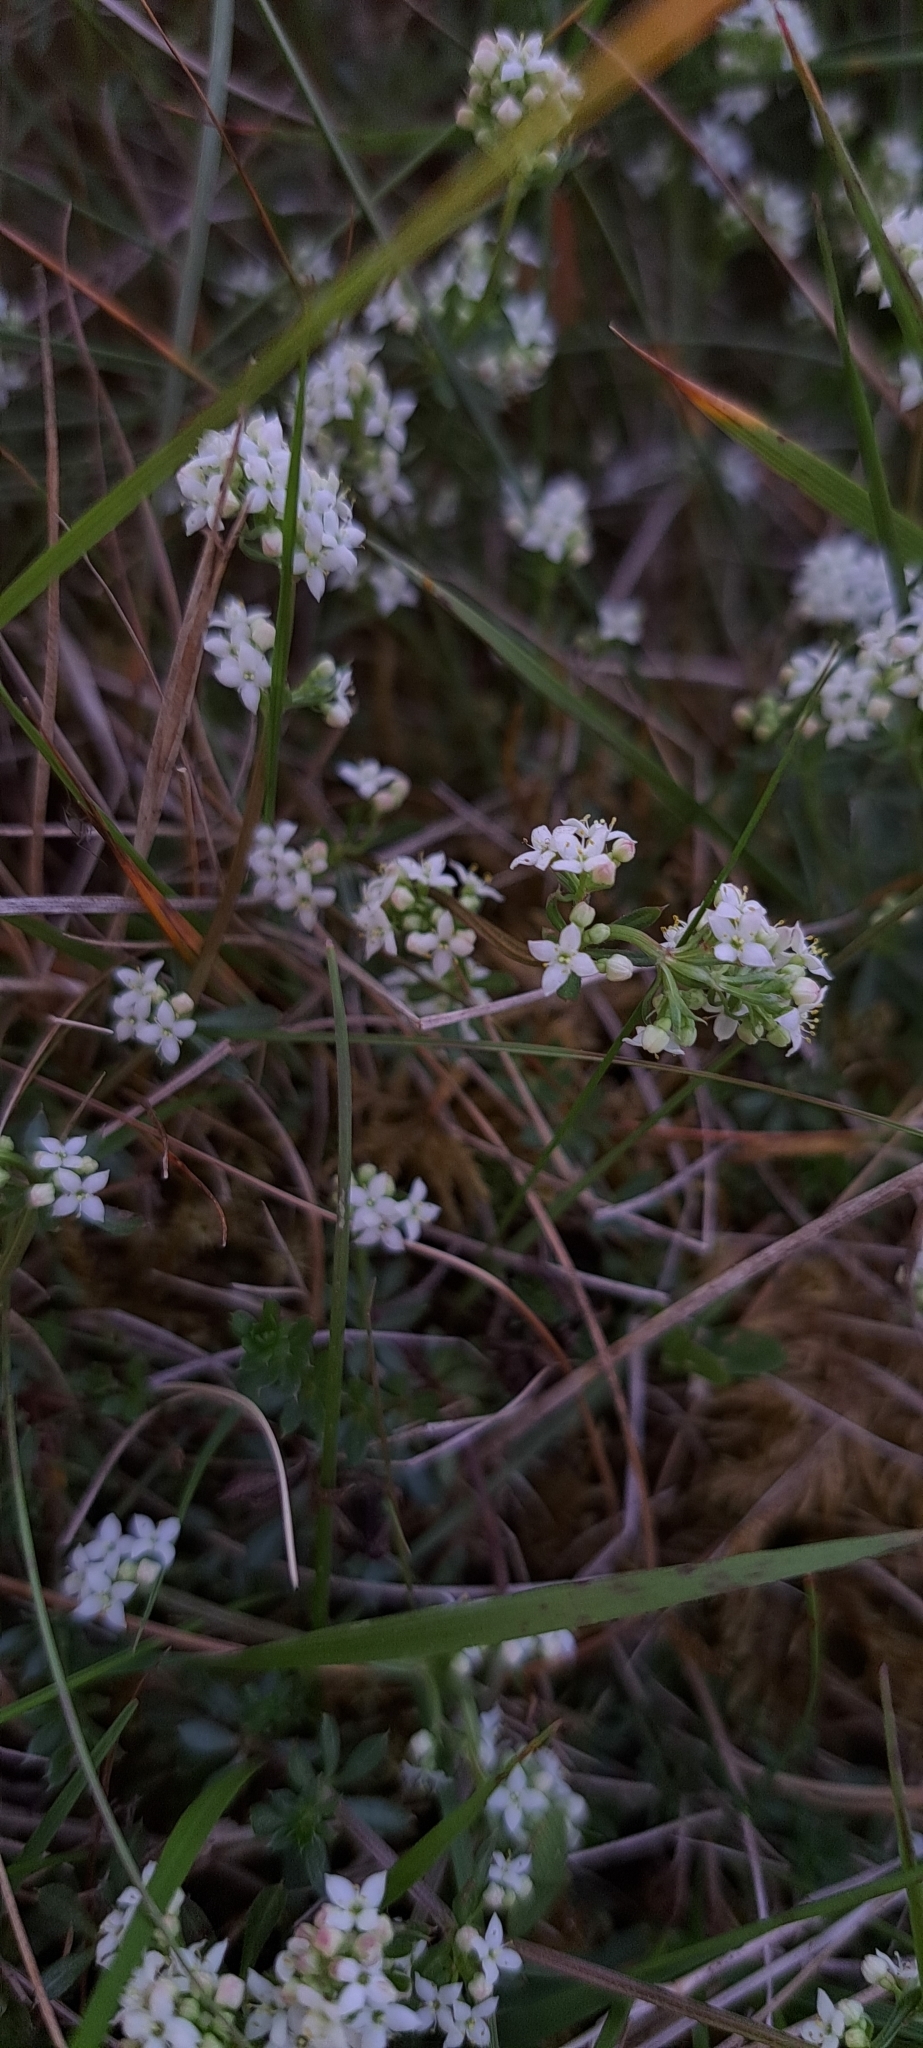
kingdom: Plantae
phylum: Tracheophyta
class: Magnoliopsida
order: Gentianales
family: Rubiaceae
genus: Galium
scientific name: Galium saxatile
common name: Heath bedstraw
